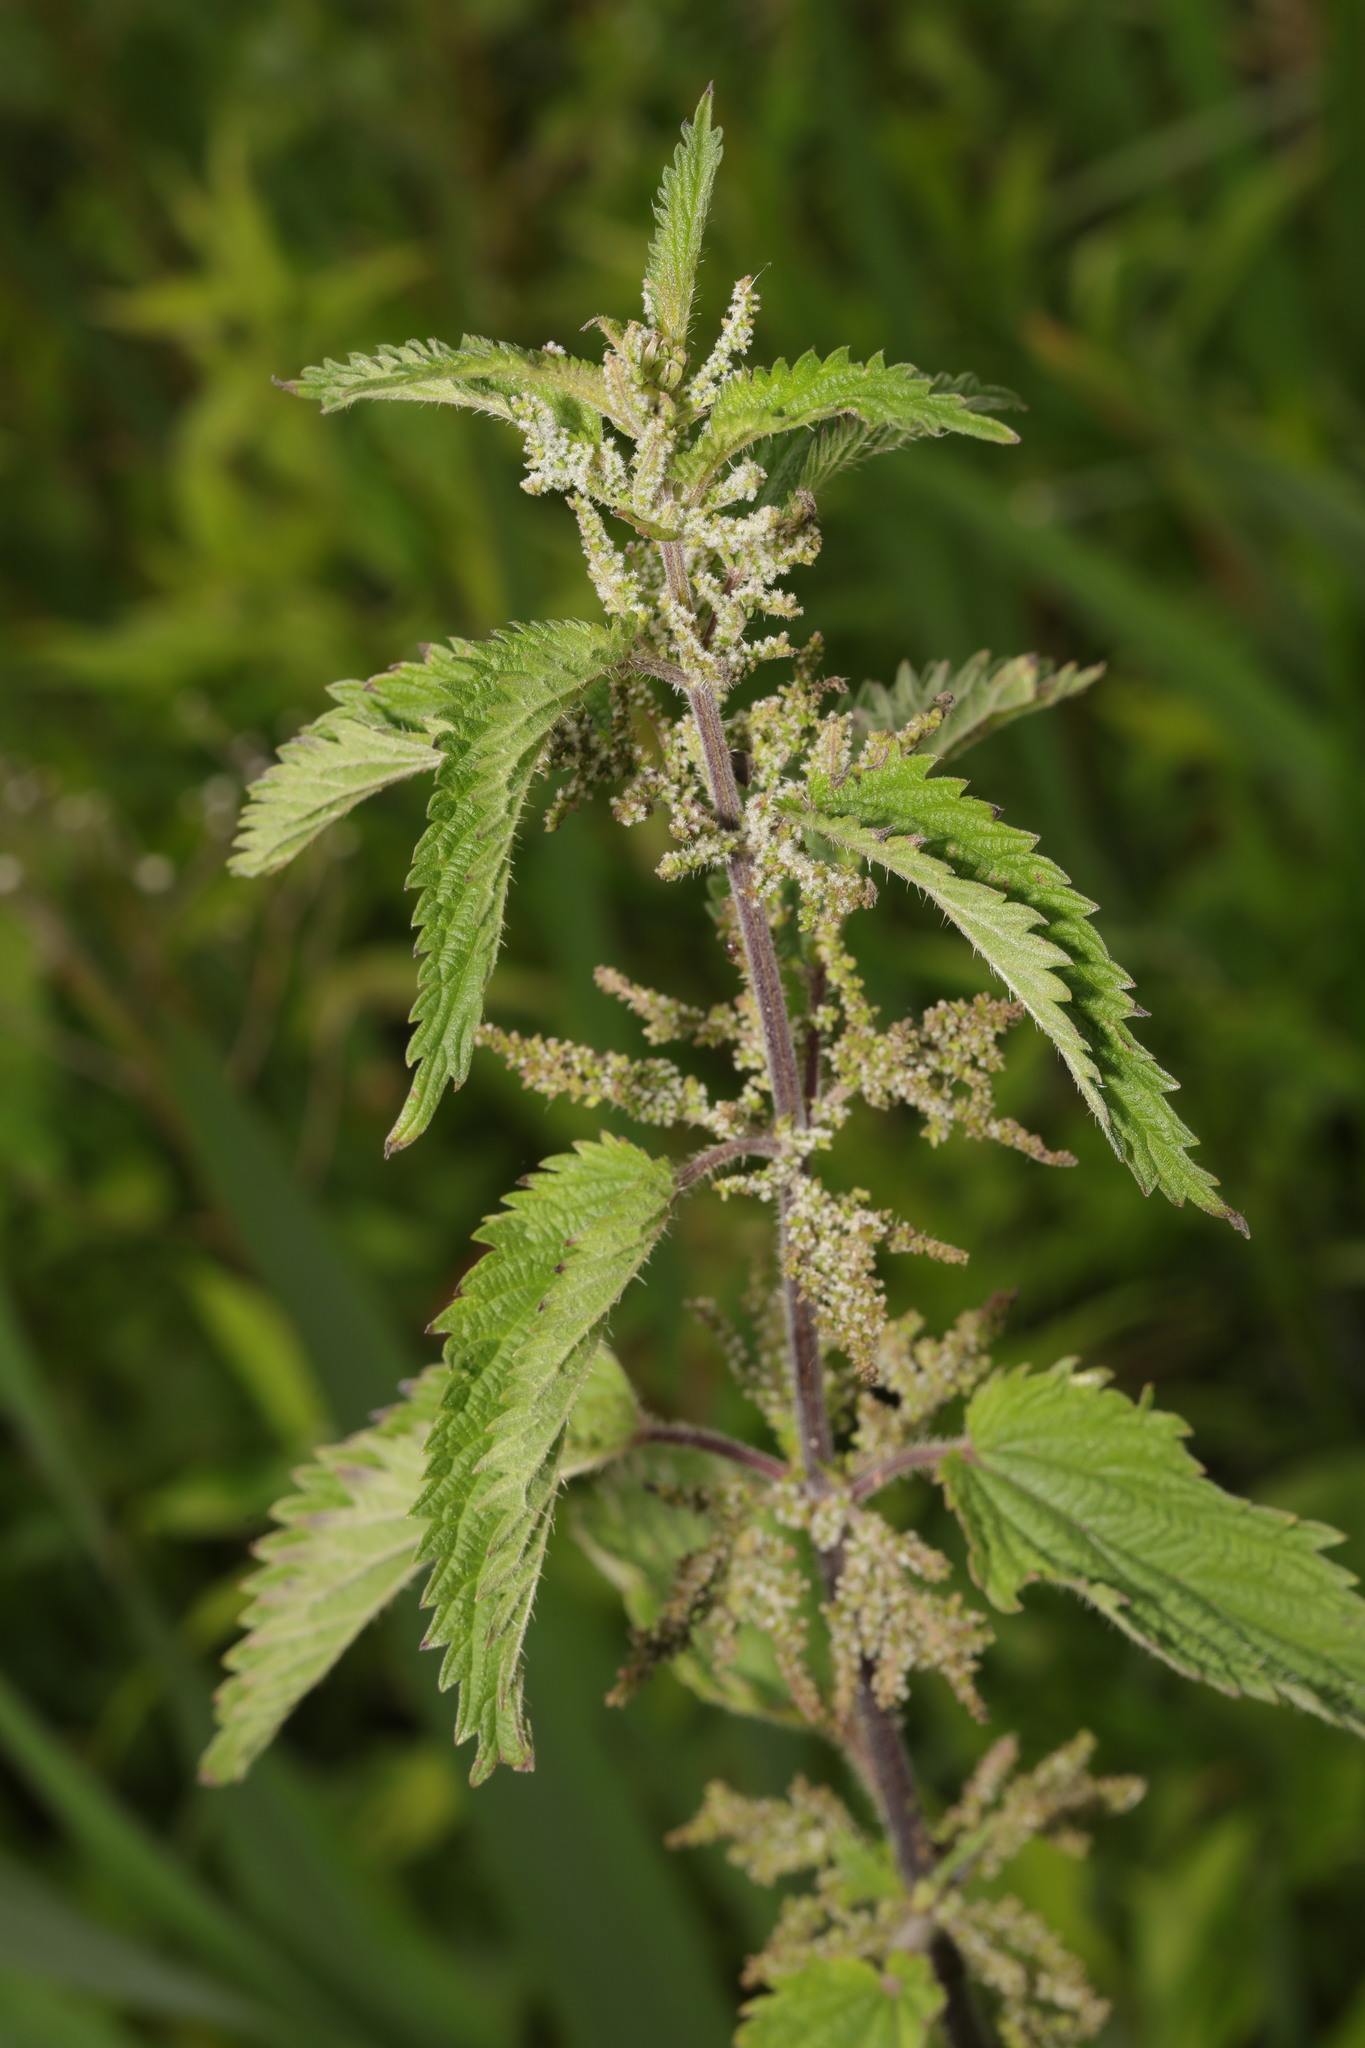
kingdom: Plantae
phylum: Tracheophyta
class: Magnoliopsida
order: Rosales
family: Urticaceae
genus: Urtica
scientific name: Urtica dioica
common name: Common nettle
